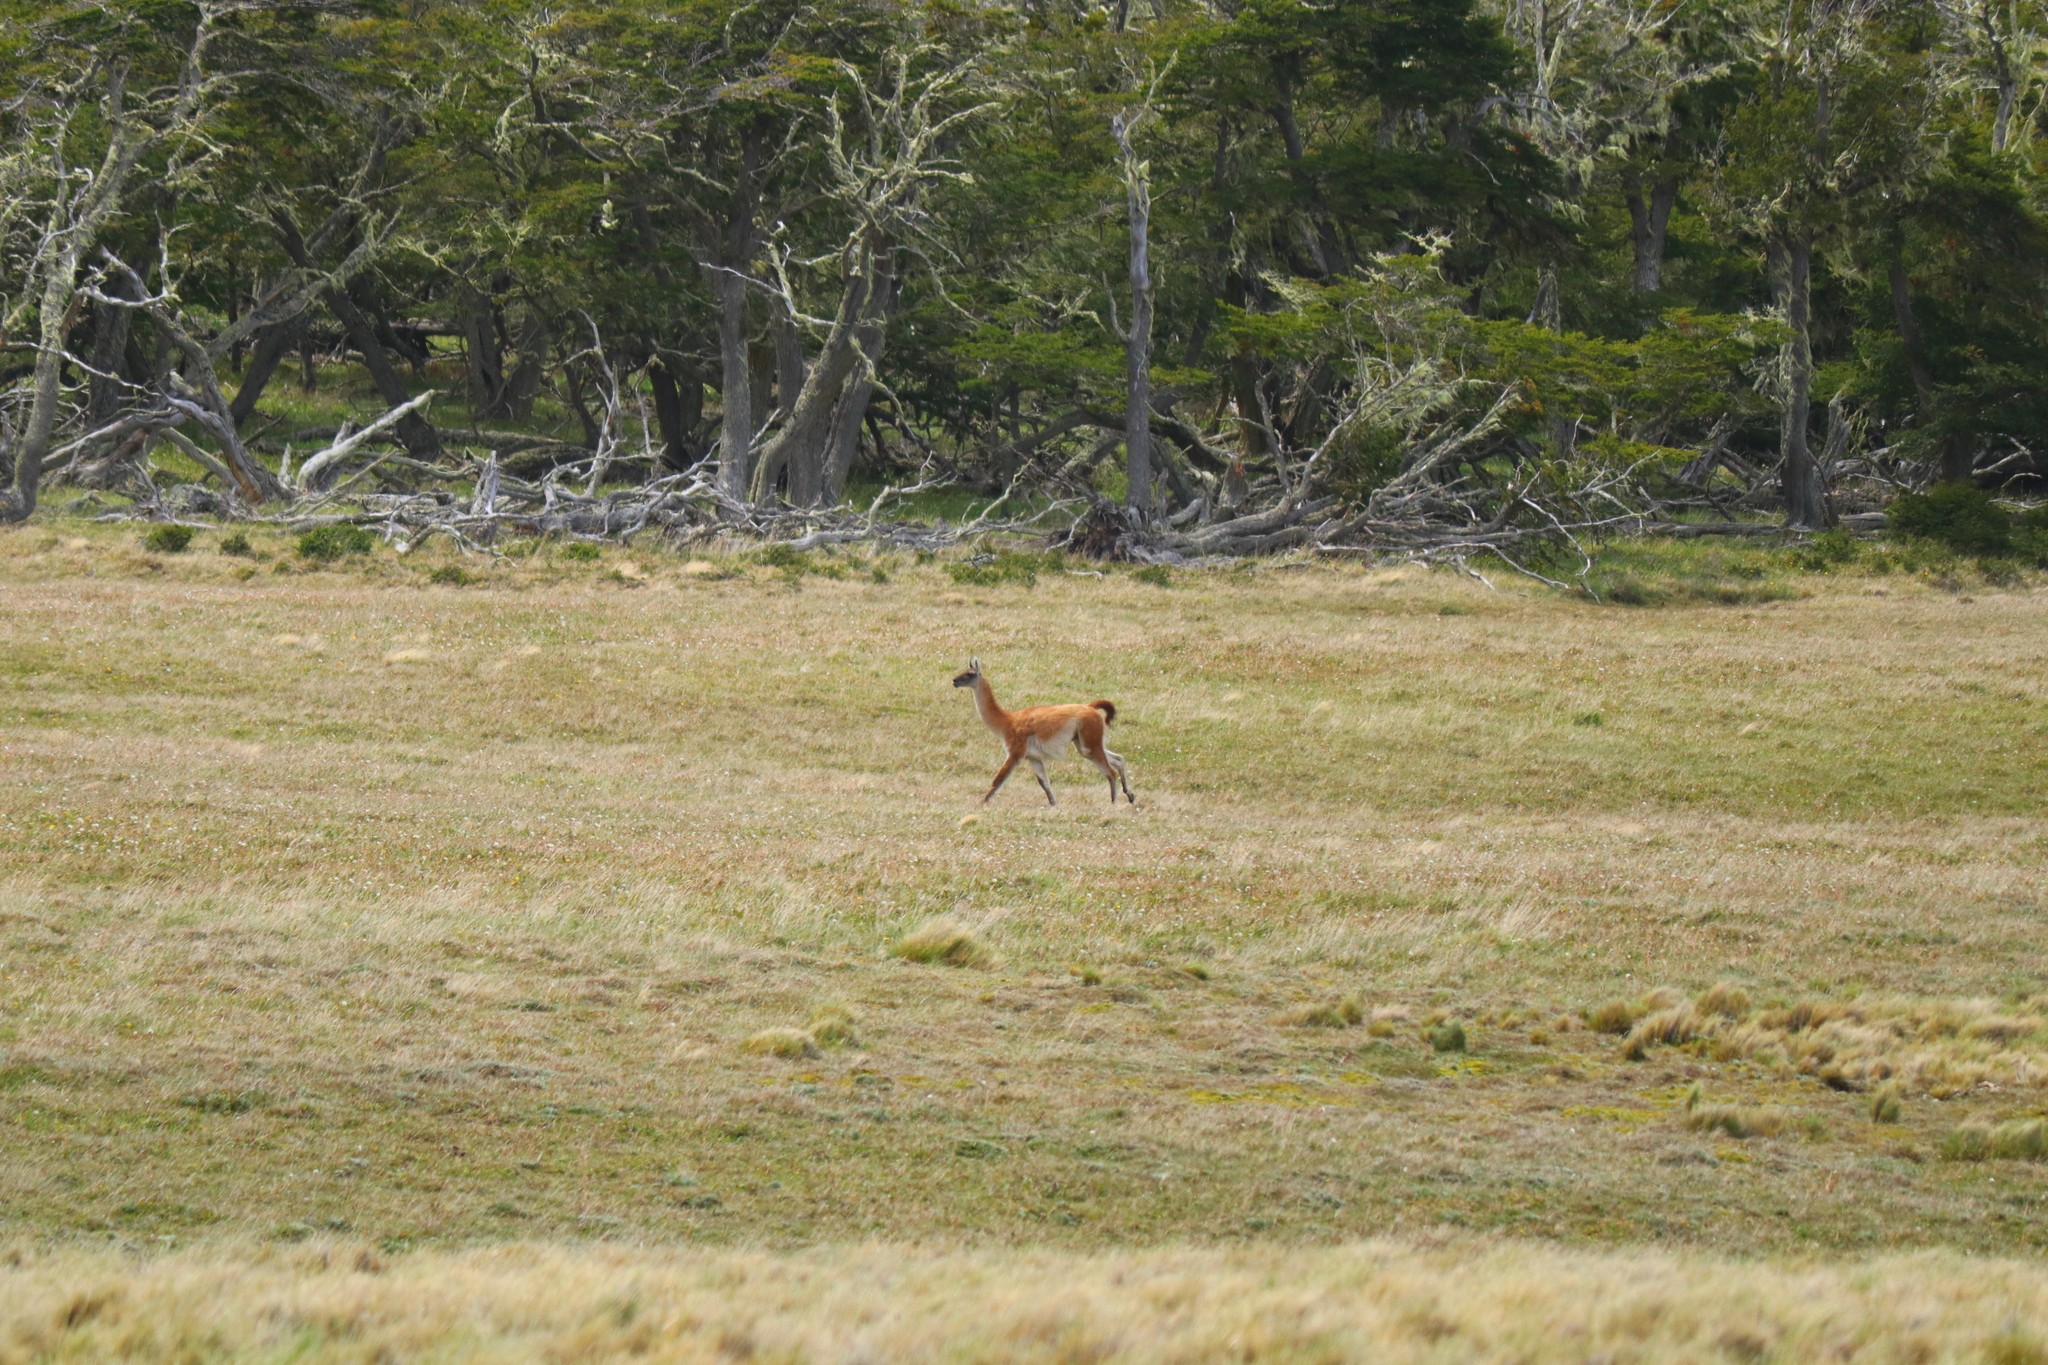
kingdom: Animalia
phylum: Chordata
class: Mammalia
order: Artiodactyla
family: Camelidae
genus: Lama
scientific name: Lama glama
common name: Llama
